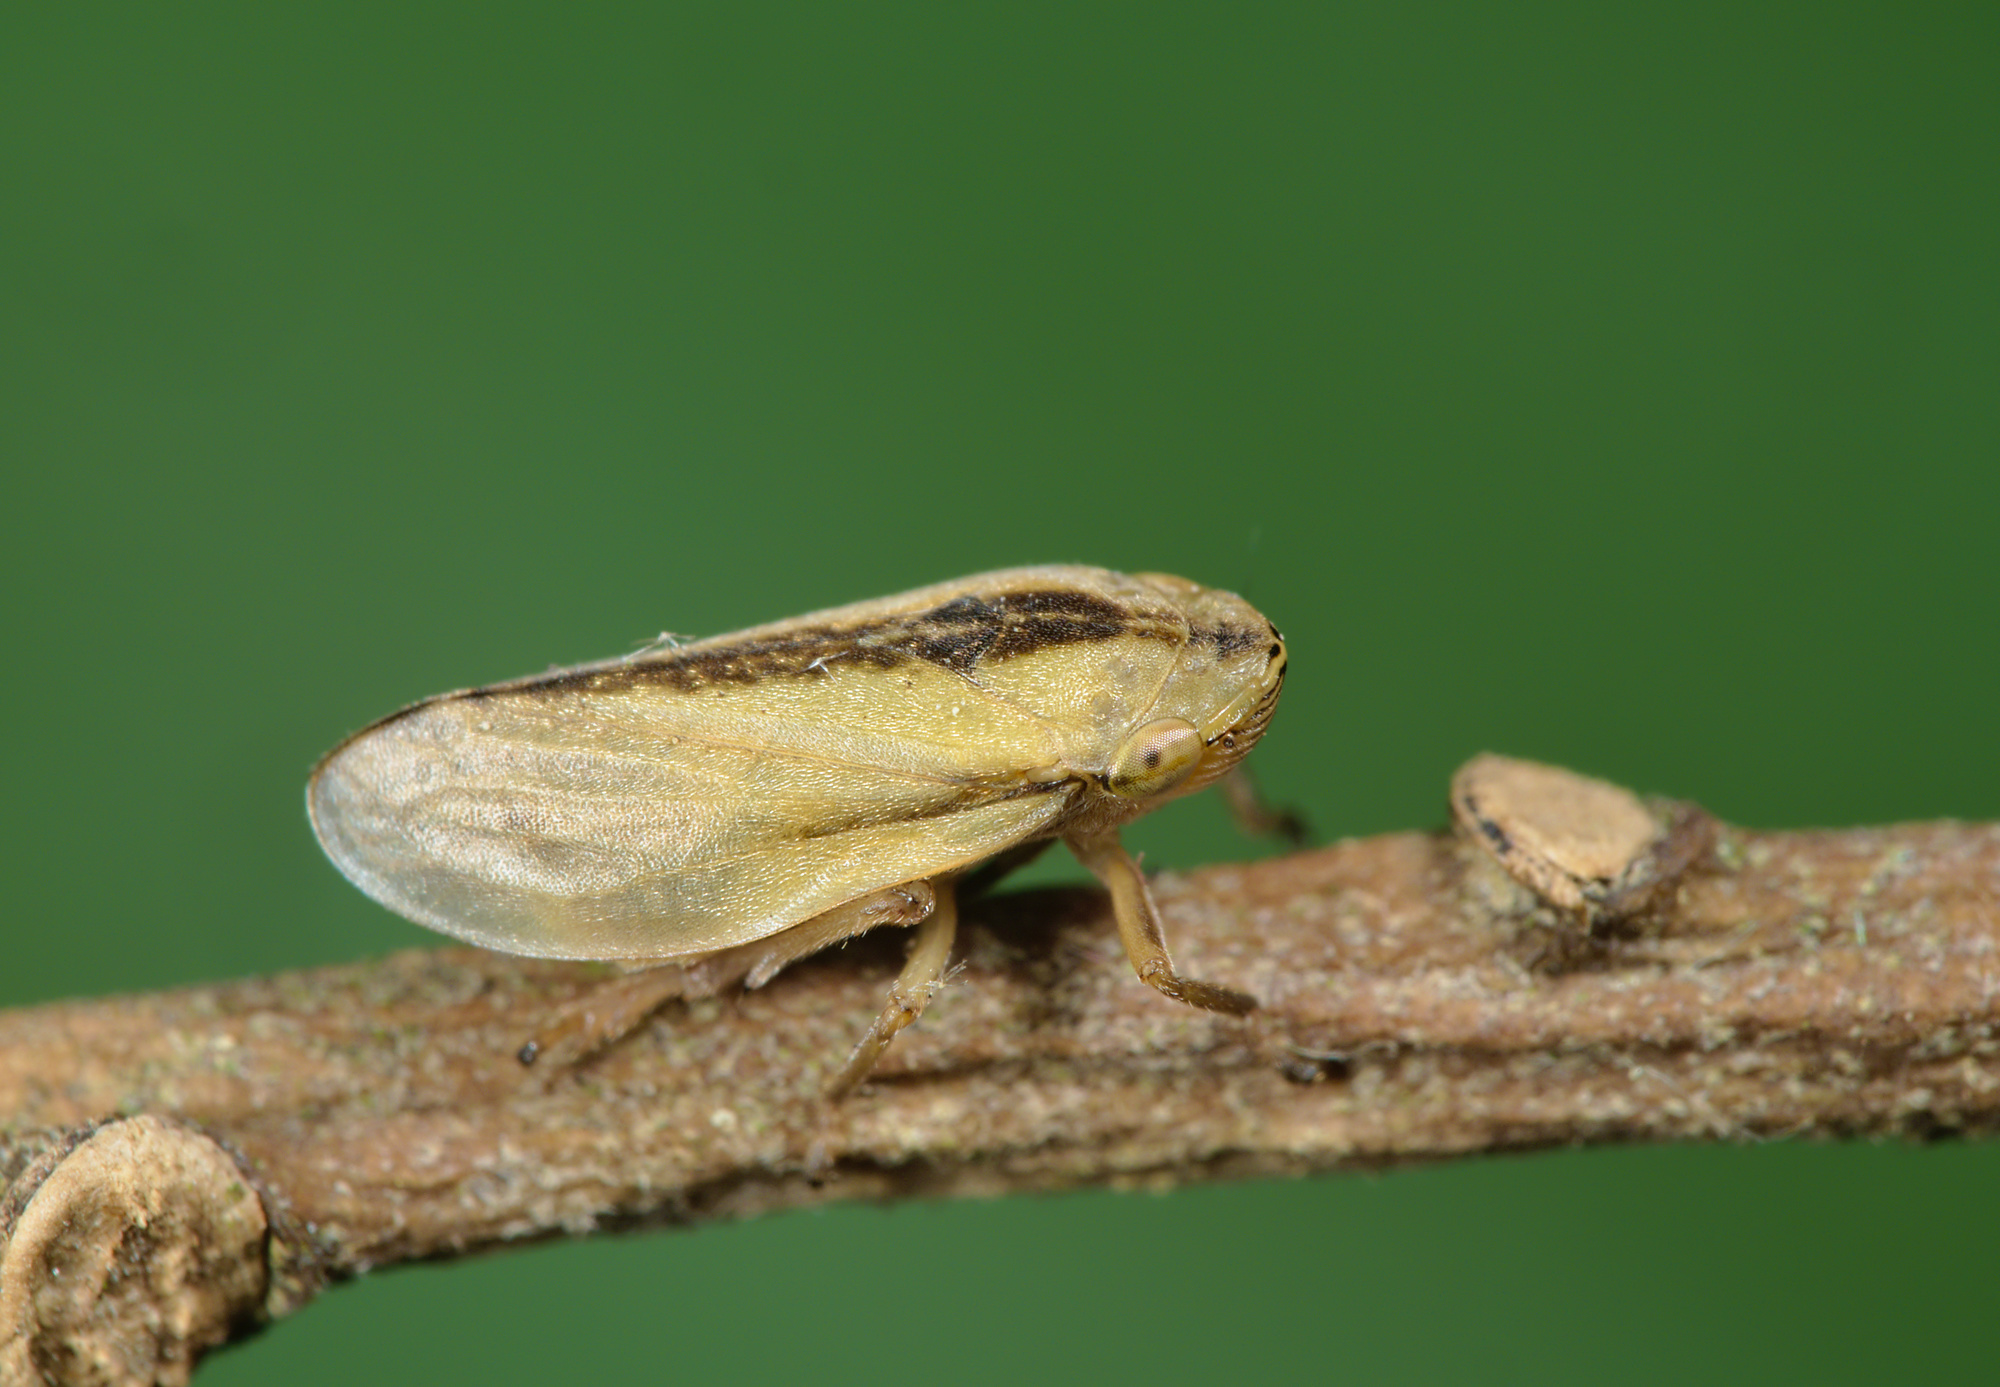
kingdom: Animalia
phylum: Arthropoda
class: Insecta
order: Hemiptera
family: Aphrophoridae
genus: Philaenus
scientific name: Philaenus spumarius
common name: Meadow spittlebug
